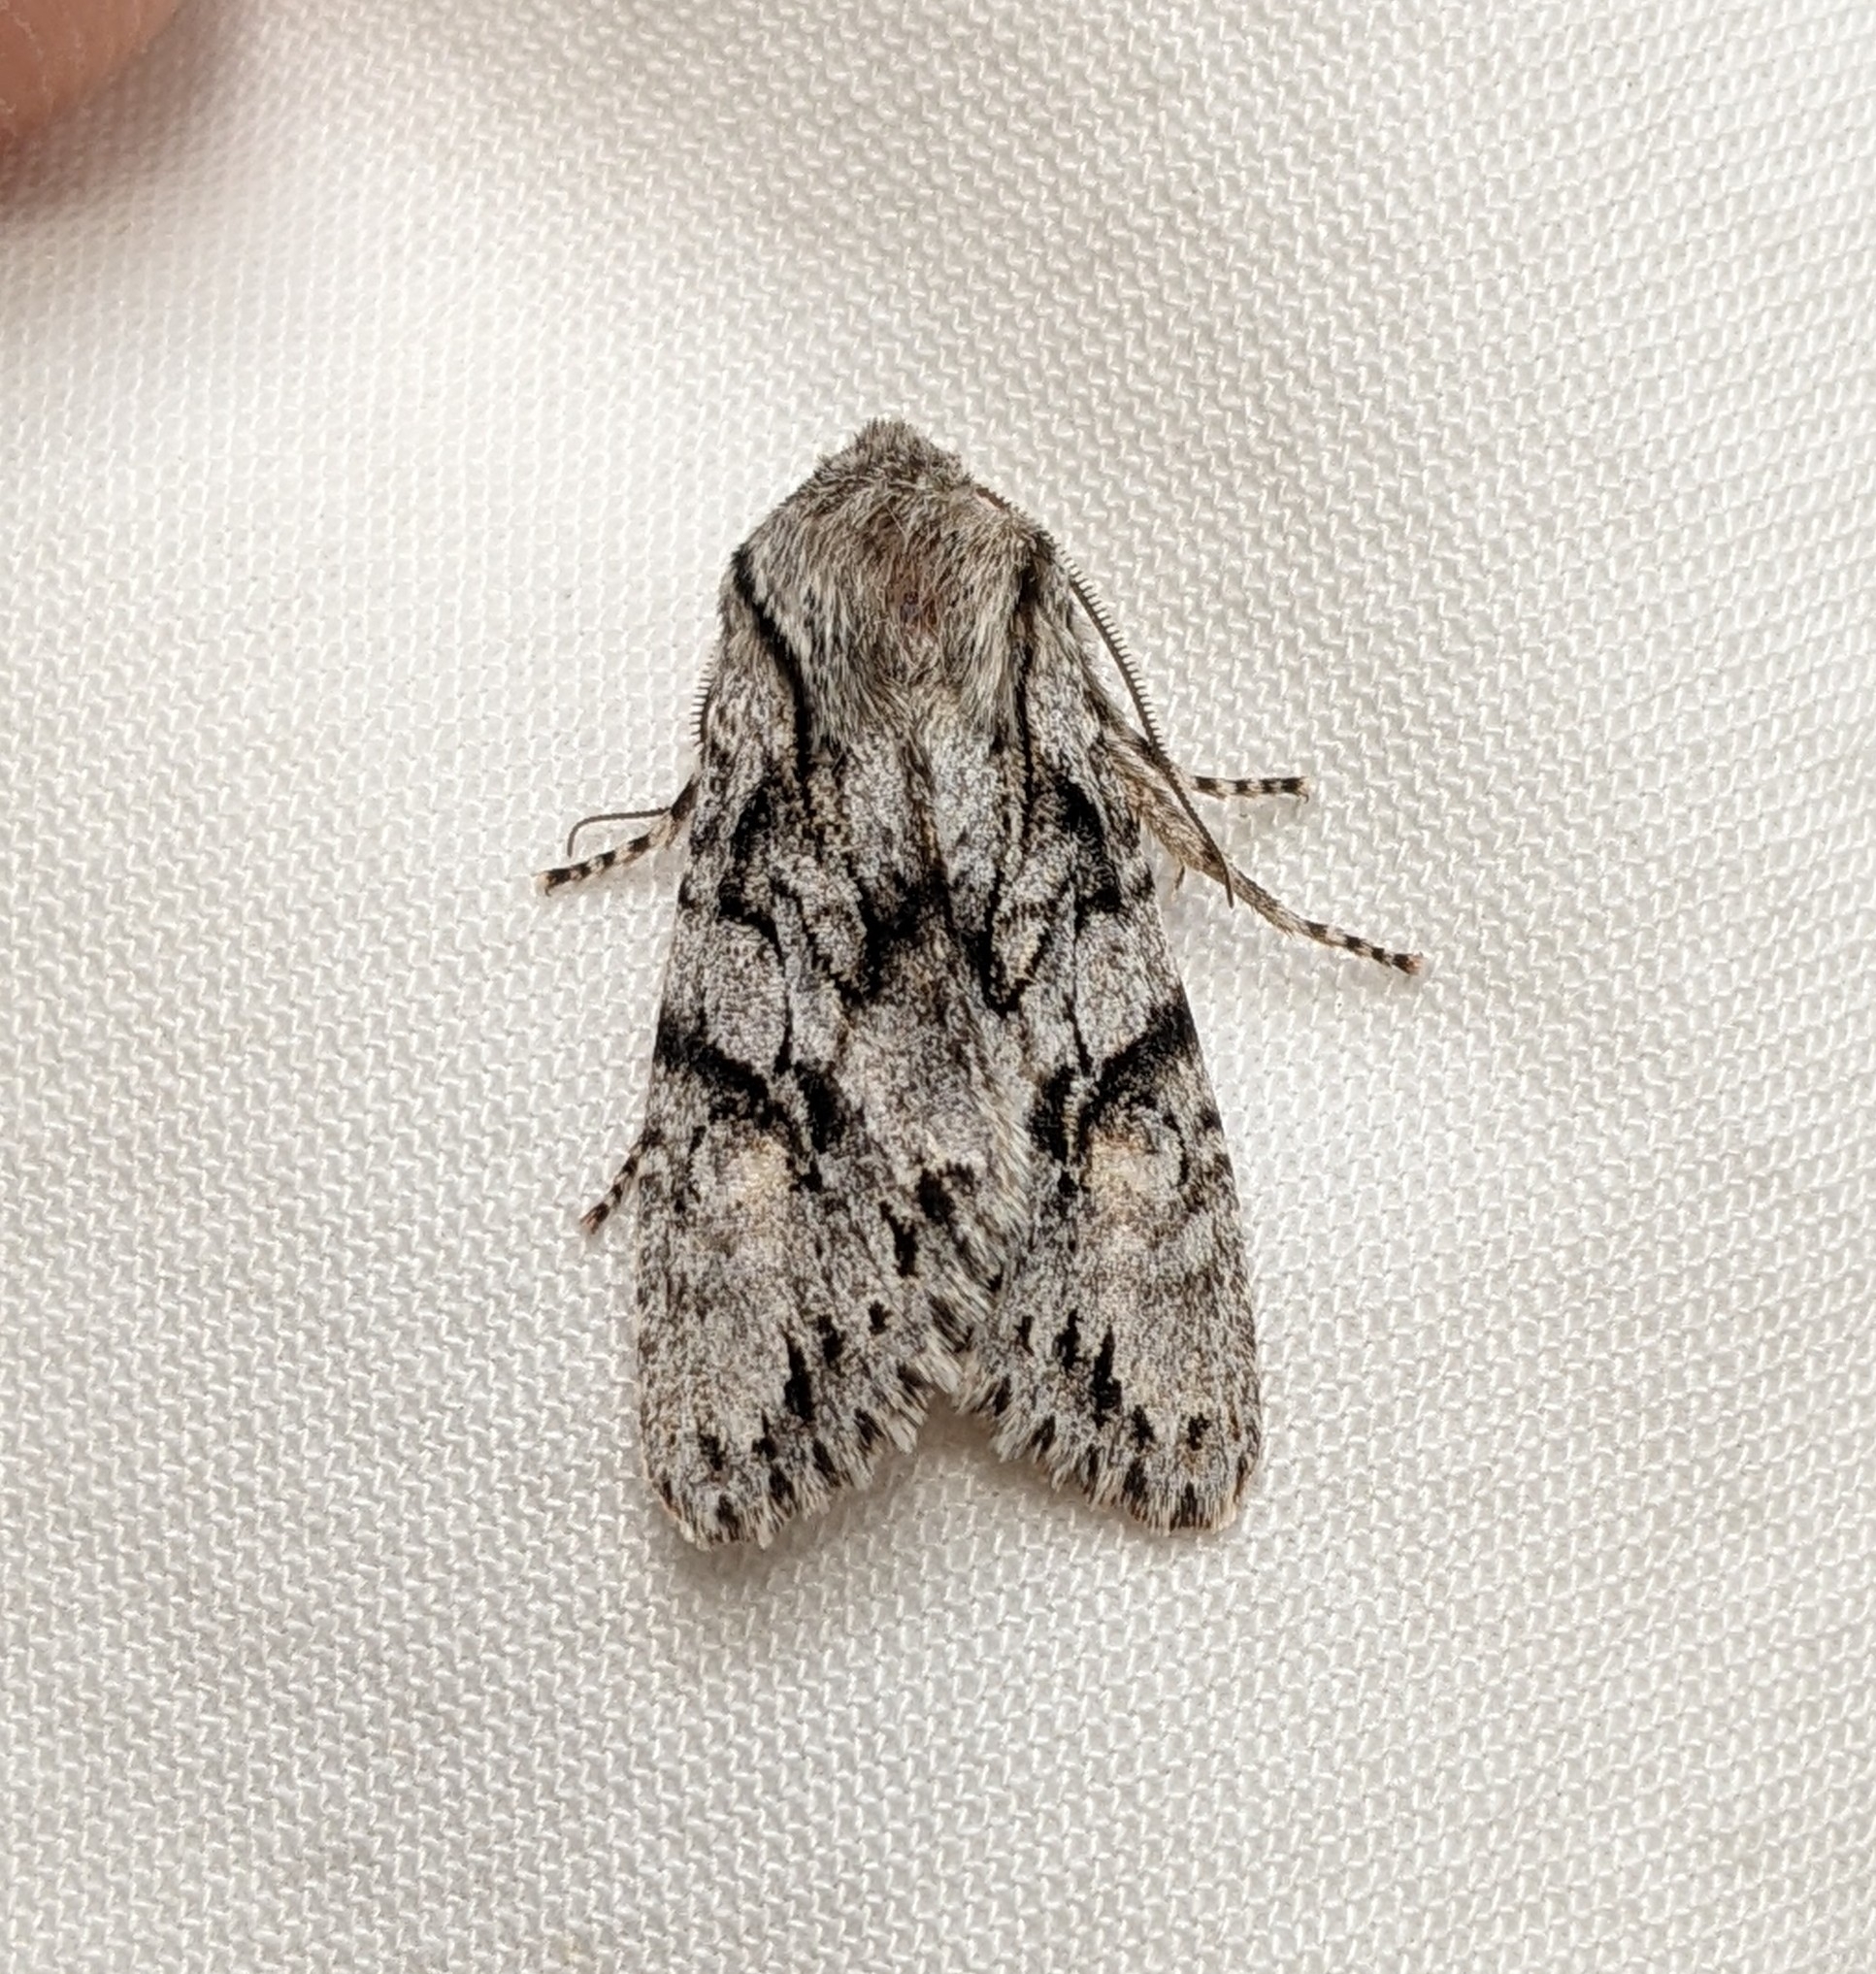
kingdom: Animalia
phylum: Arthropoda
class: Insecta
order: Lepidoptera
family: Noctuidae
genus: Egira
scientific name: Egira simplex
